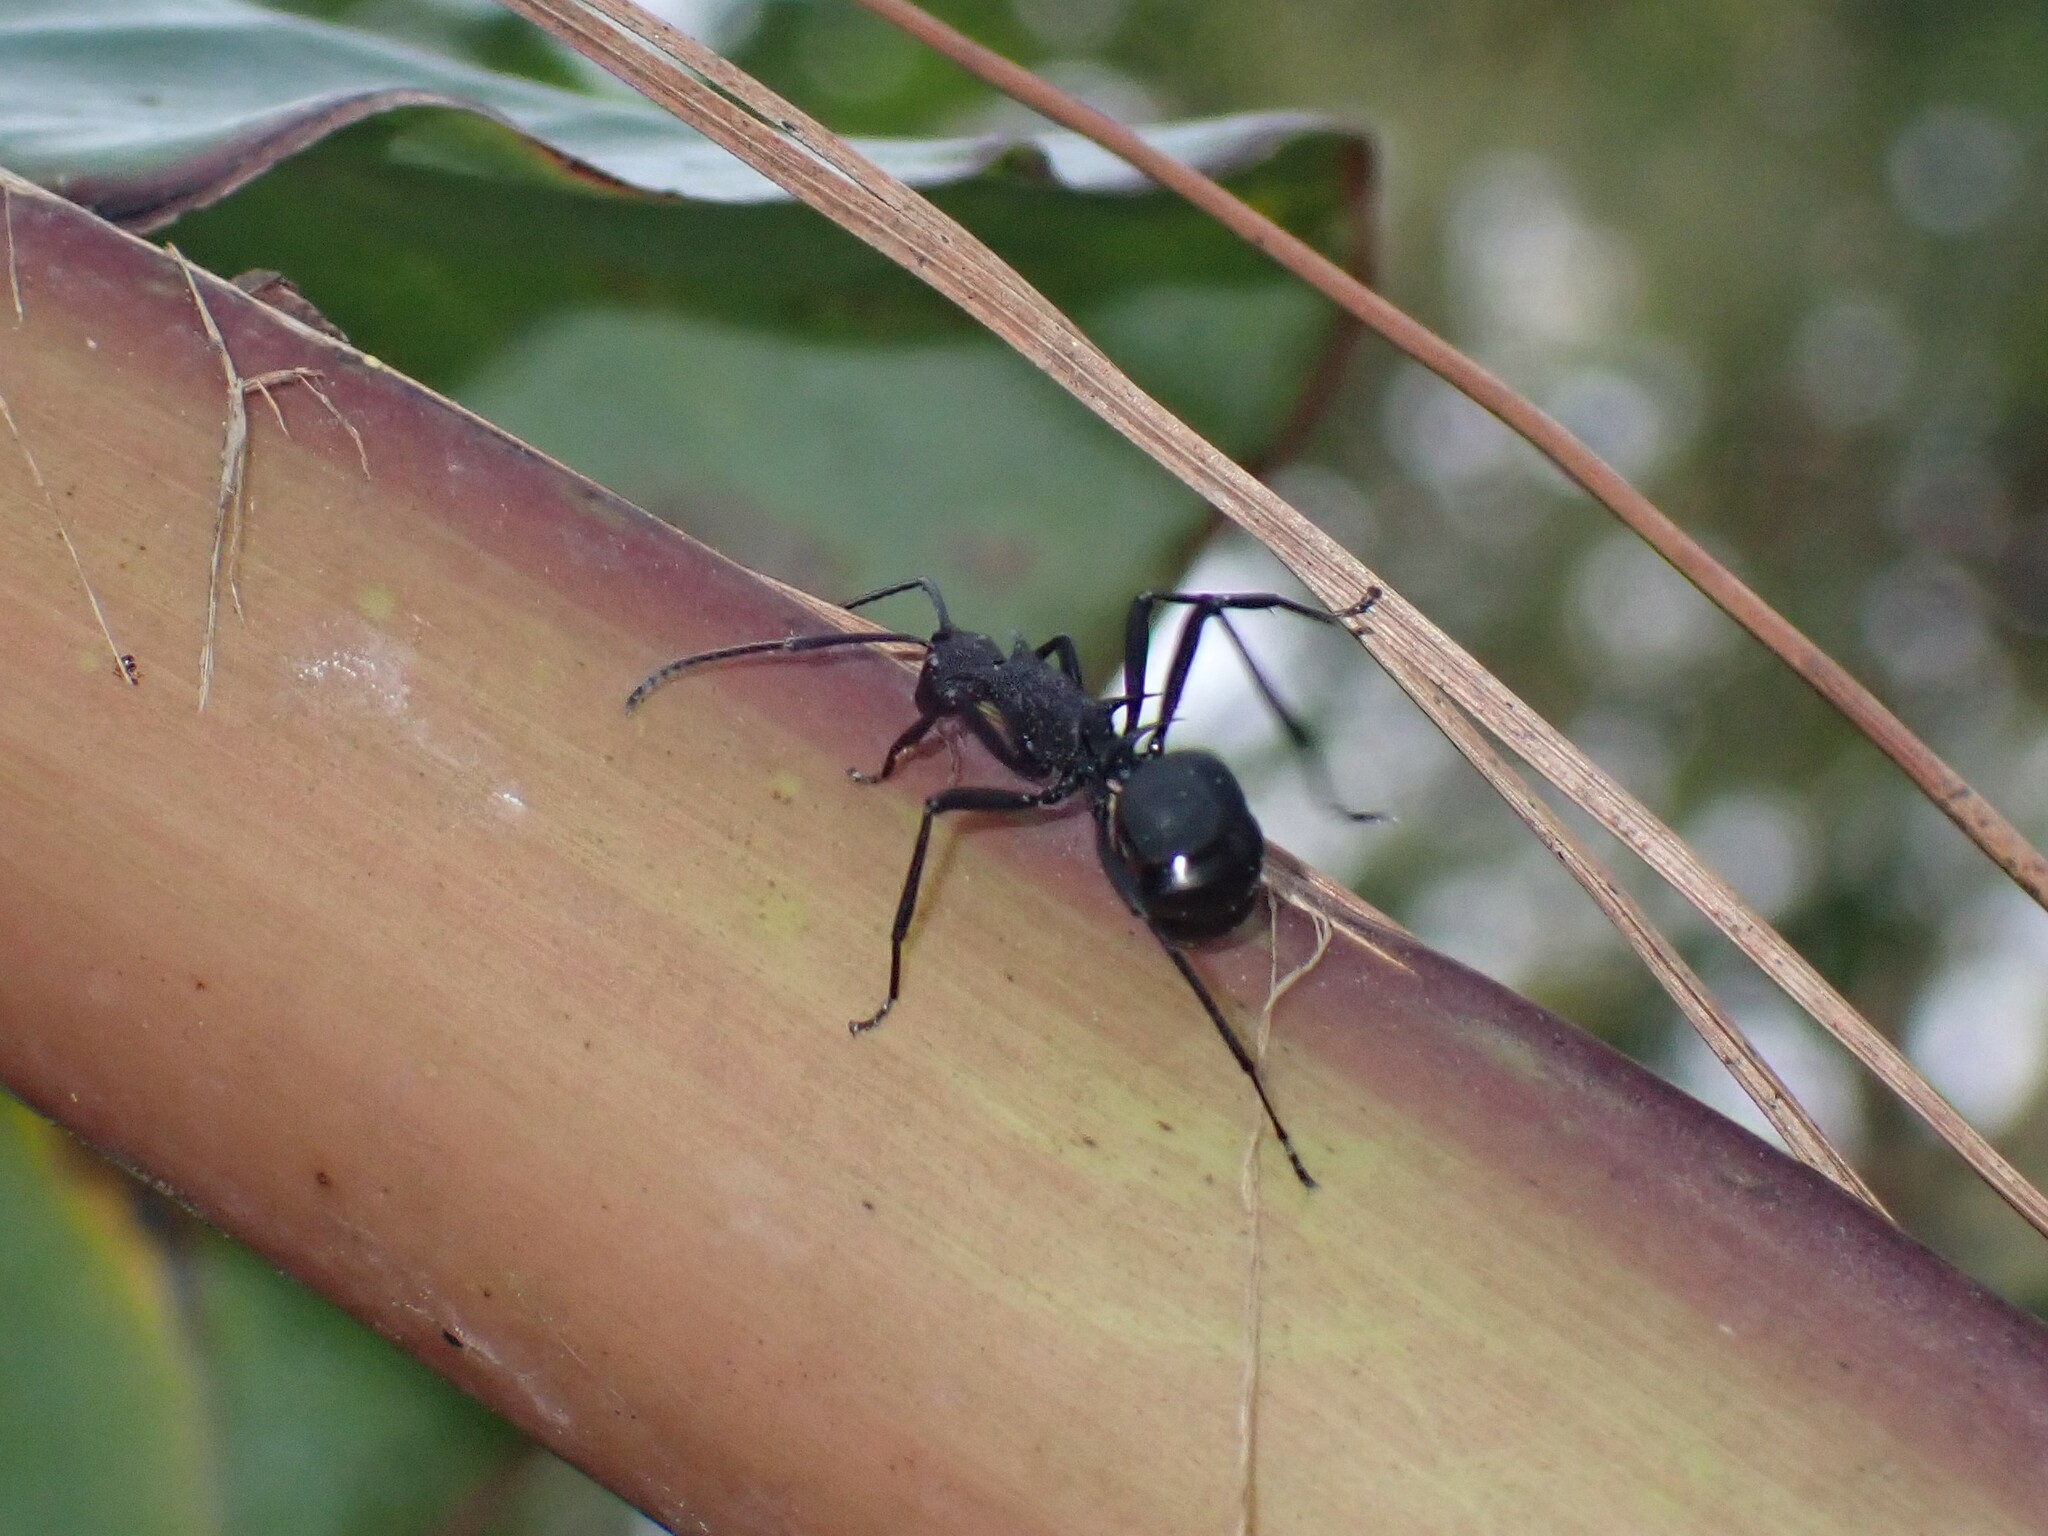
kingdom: Animalia
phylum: Arthropoda
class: Insecta
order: Hymenoptera
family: Formicidae
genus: Polyrhachis
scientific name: Polyrhachis armata
